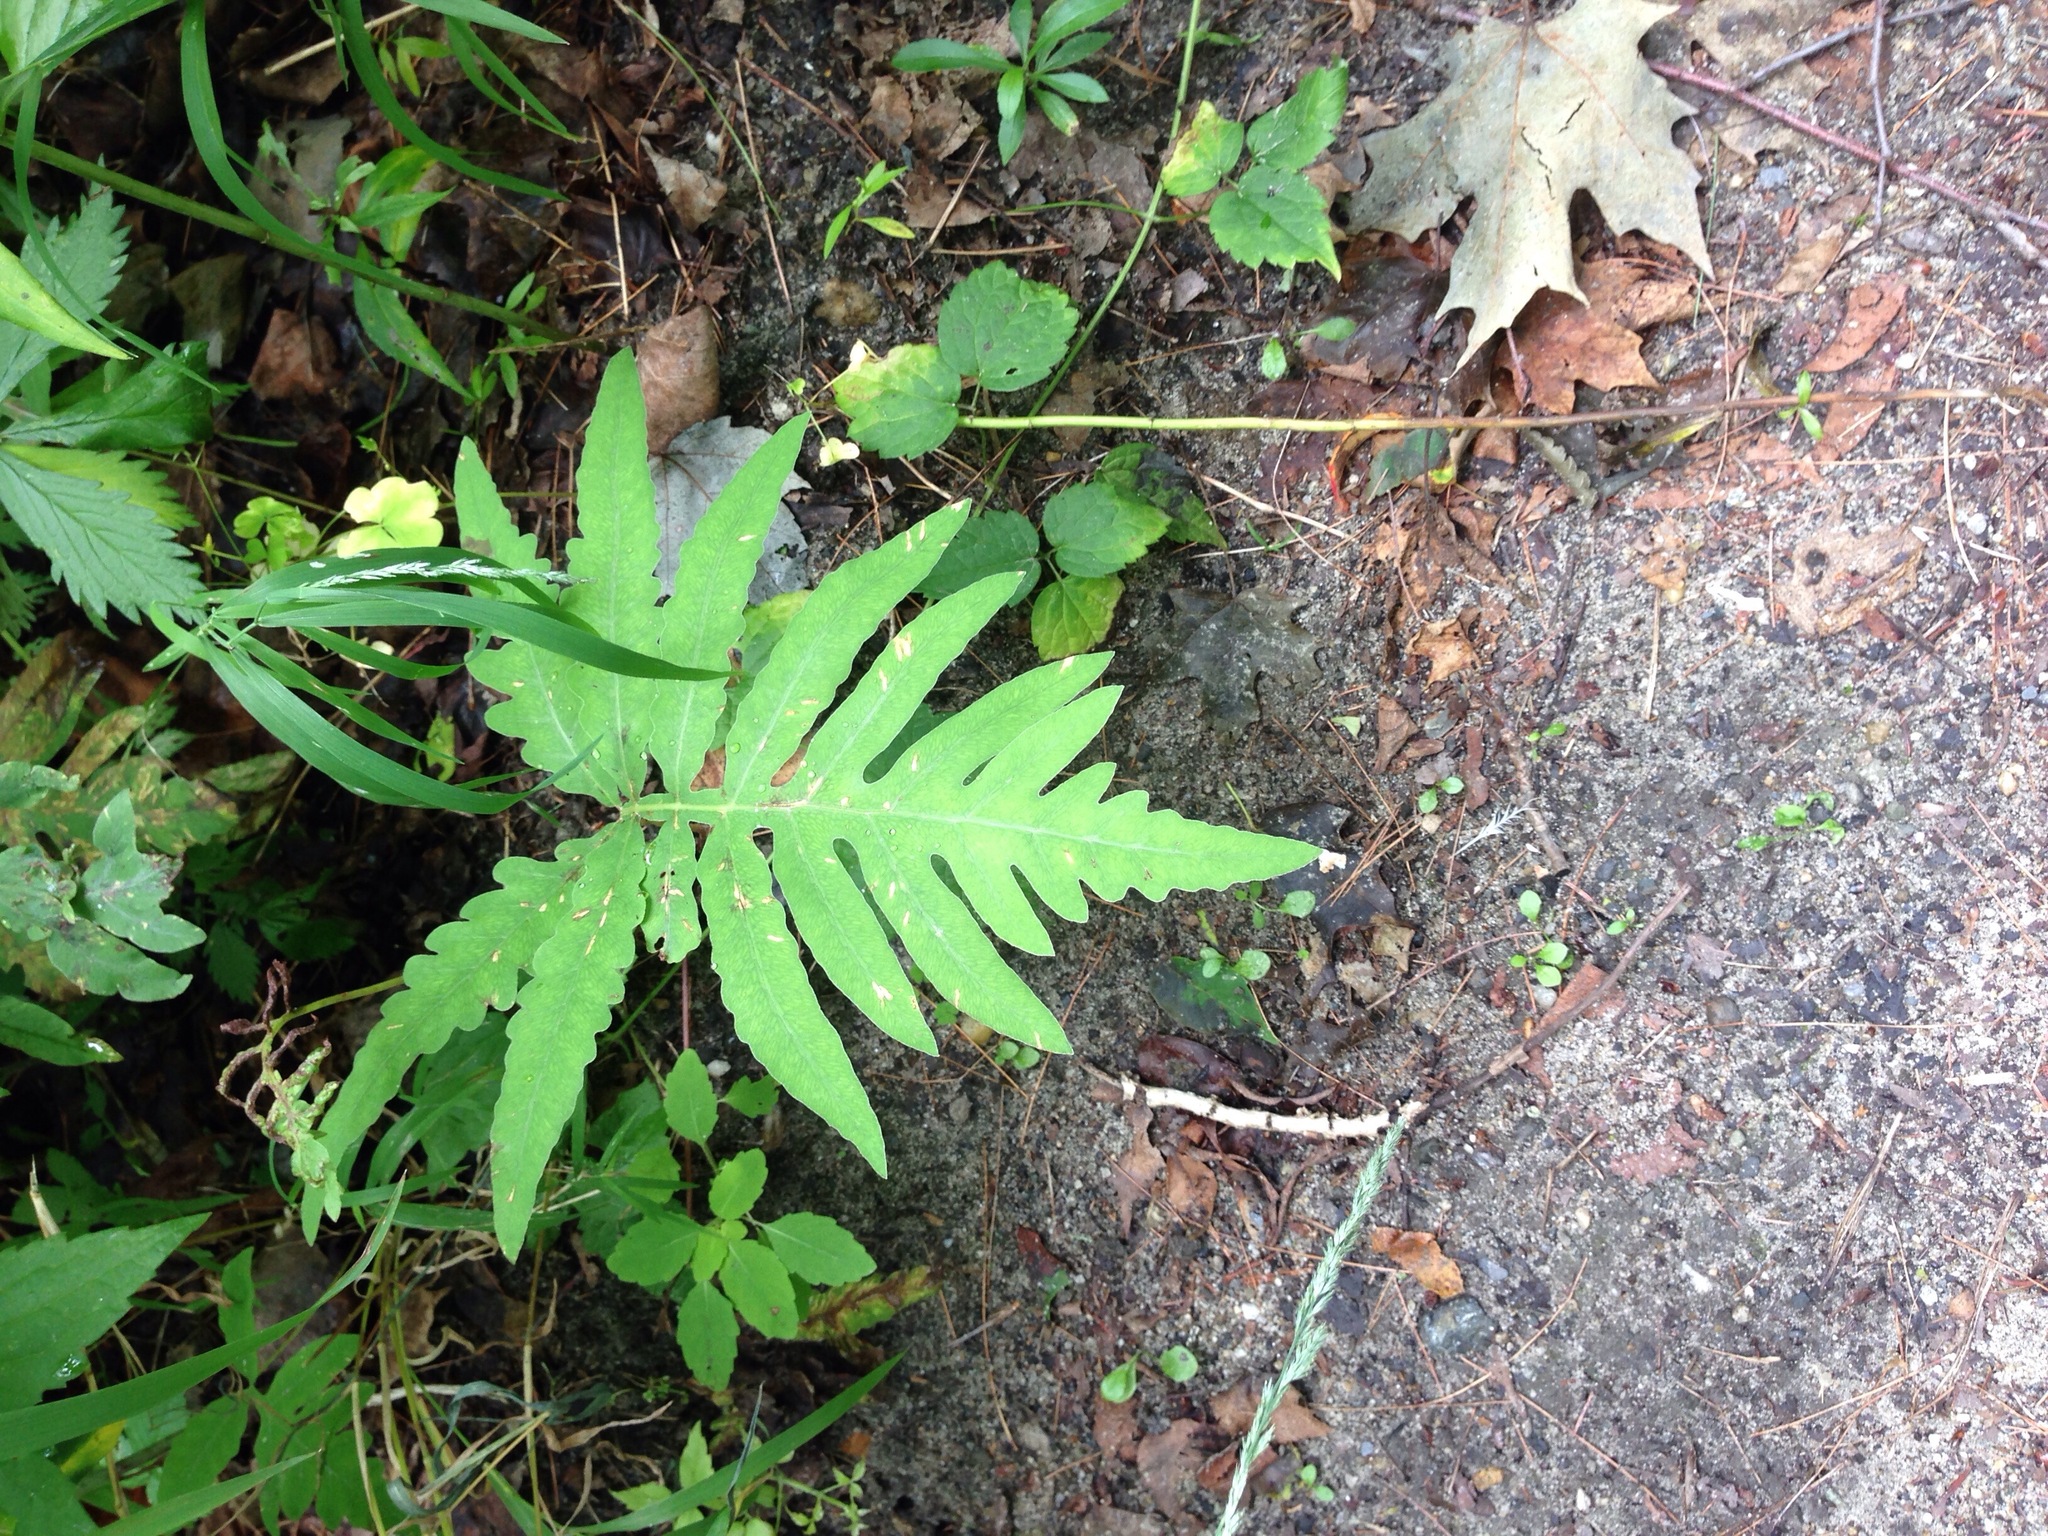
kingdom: Plantae
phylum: Tracheophyta
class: Polypodiopsida
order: Polypodiales
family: Onocleaceae
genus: Onoclea
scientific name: Onoclea sensibilis
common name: Sensitive fern
